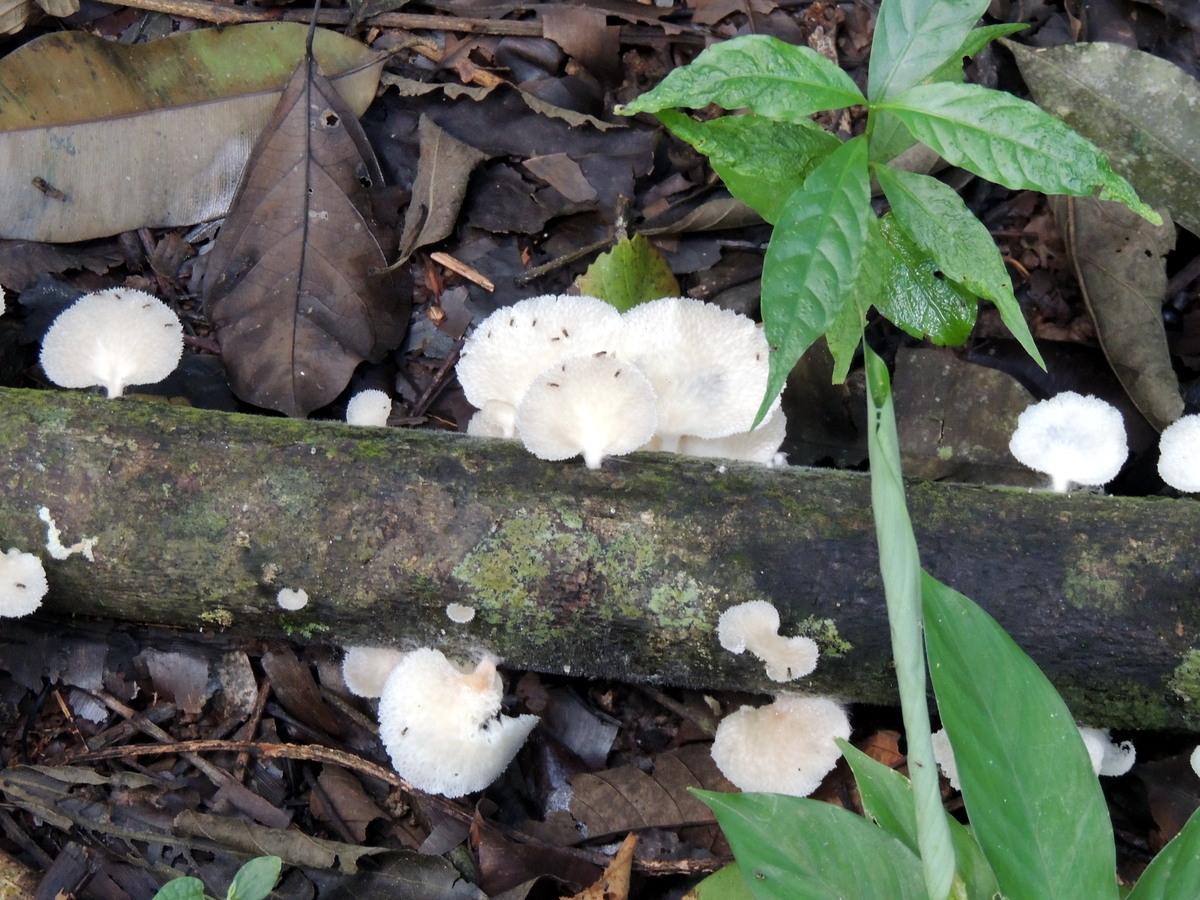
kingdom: Fungi
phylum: Basidiomycota
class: Agaricomycetes
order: Polyporales
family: Polyporaceae
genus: Favolus
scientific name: Favolus tenuiculus
